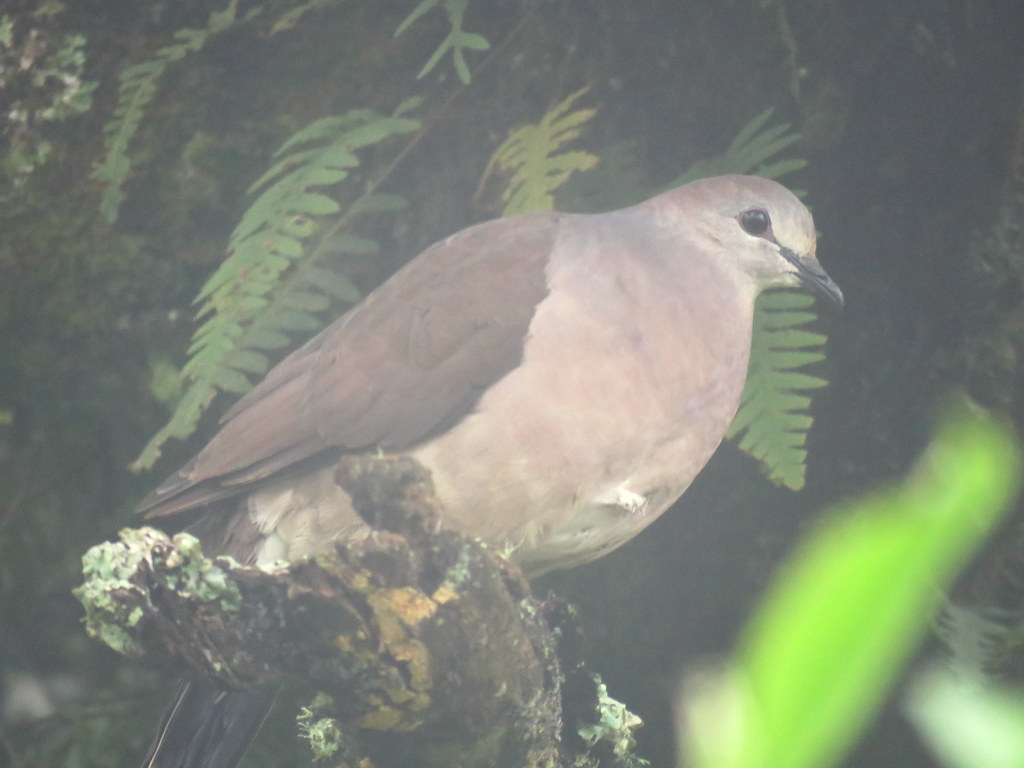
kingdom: Animalia
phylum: Chordata
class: Aves
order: Columbiformes
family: Columbidae
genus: Leptotila
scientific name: Leptotila megalura
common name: Yungas dove
